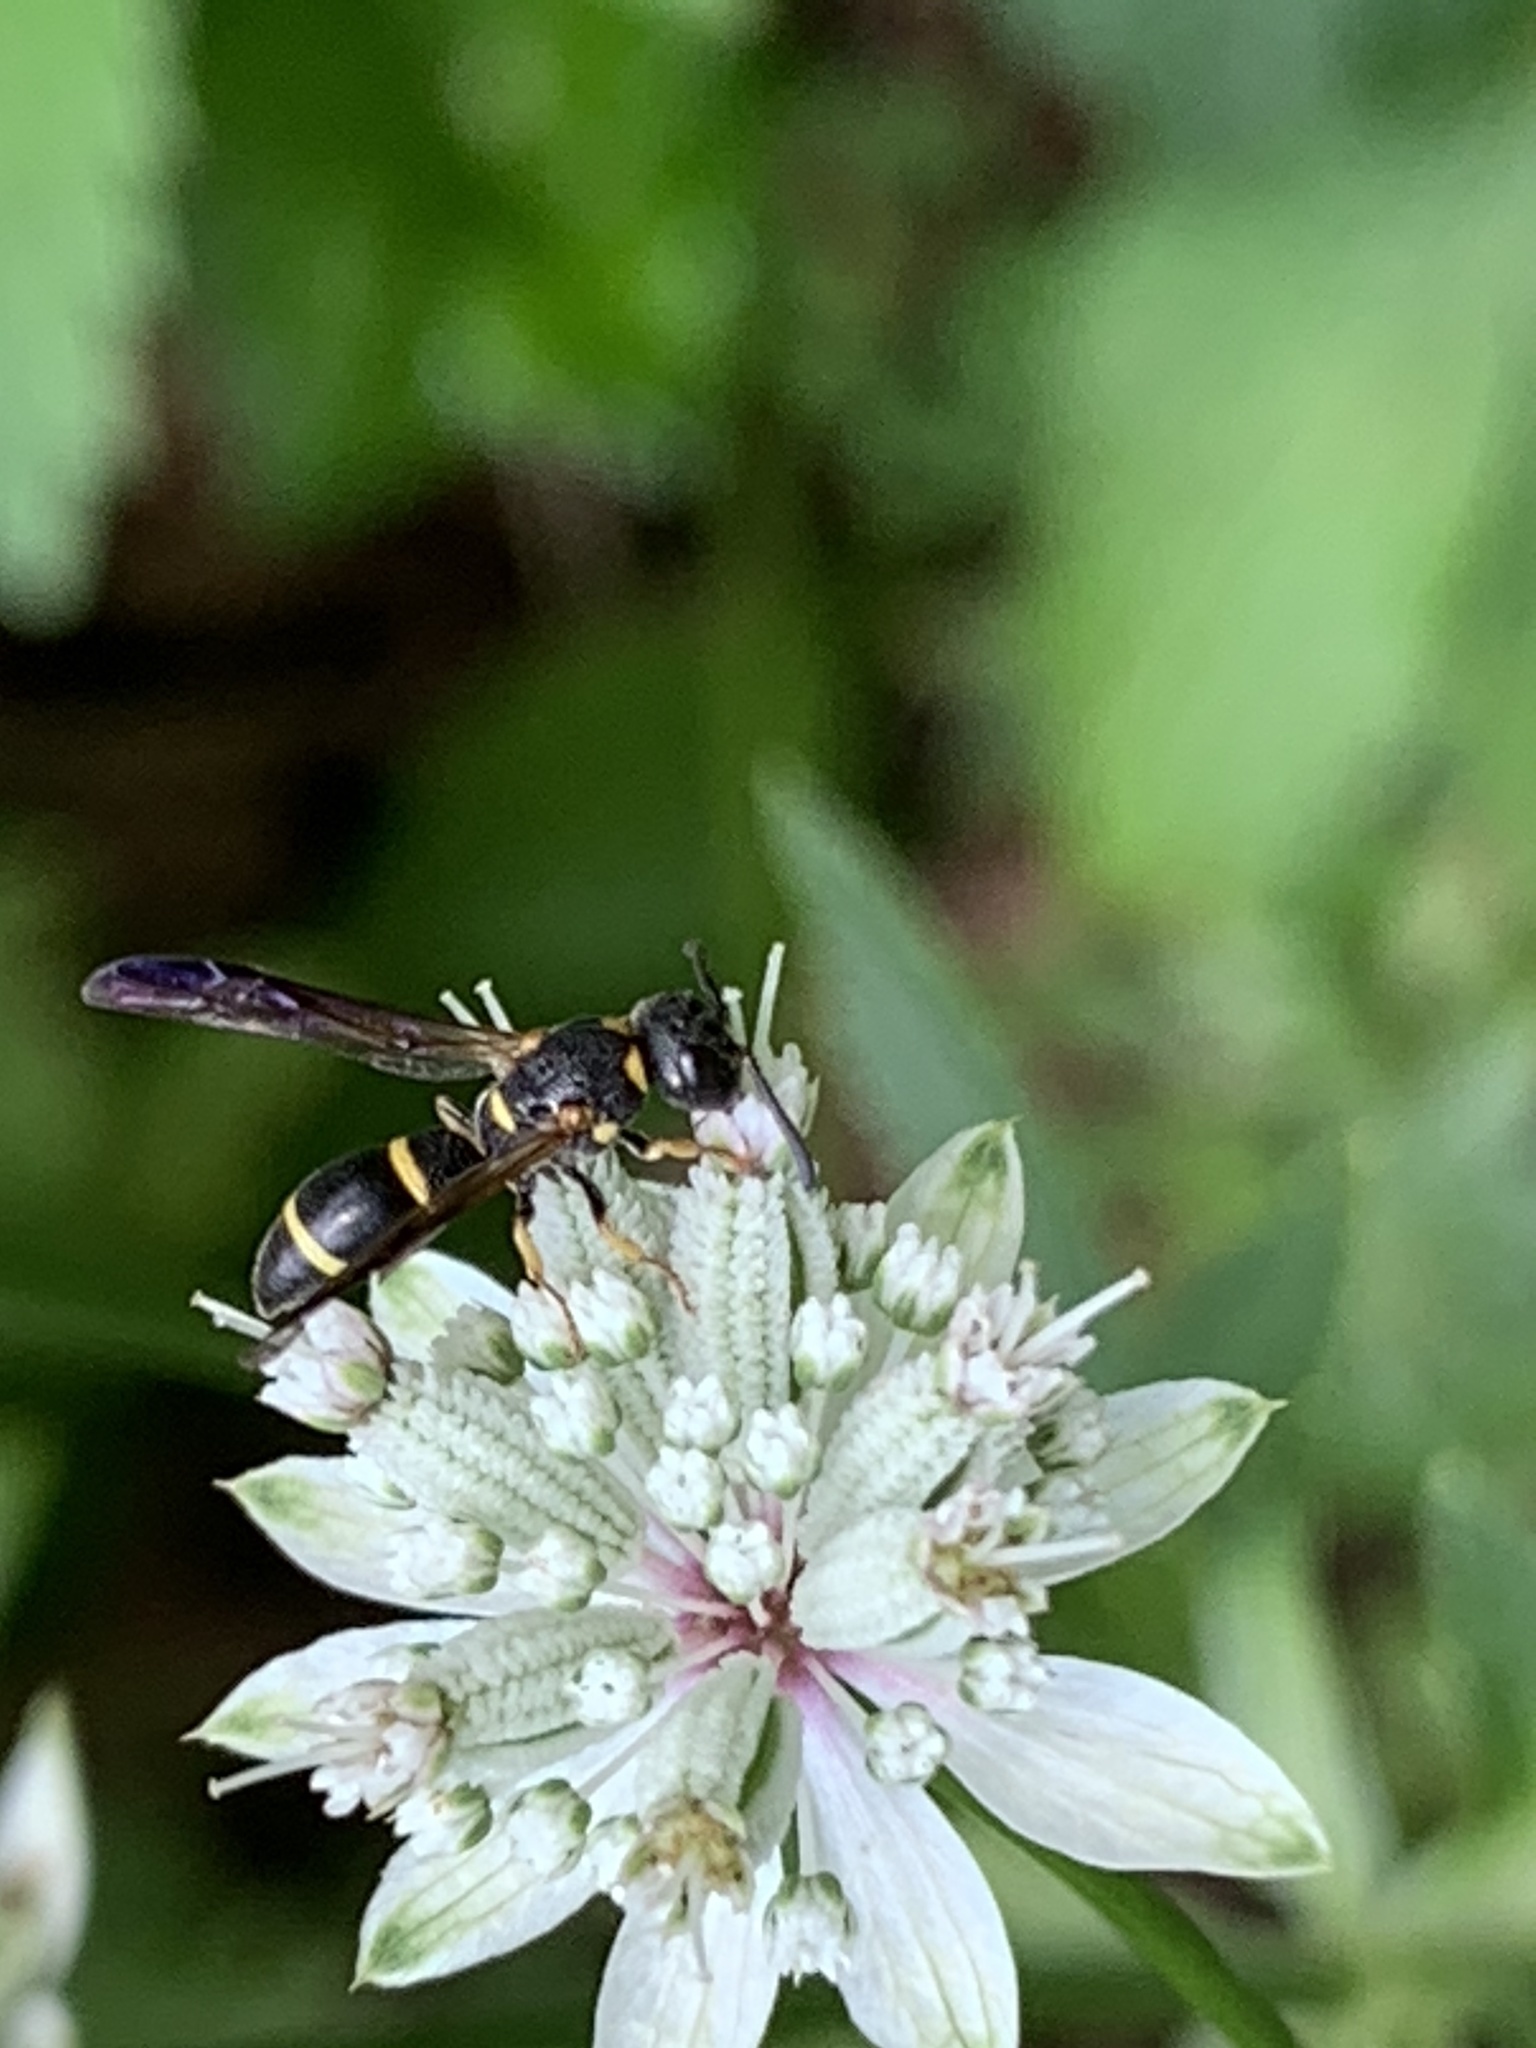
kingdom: Animalia
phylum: Arthropoda
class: Insecta
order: Hymenoptera
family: Eumenidae
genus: Parancistrocerus
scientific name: Parancistrocerus perennis
